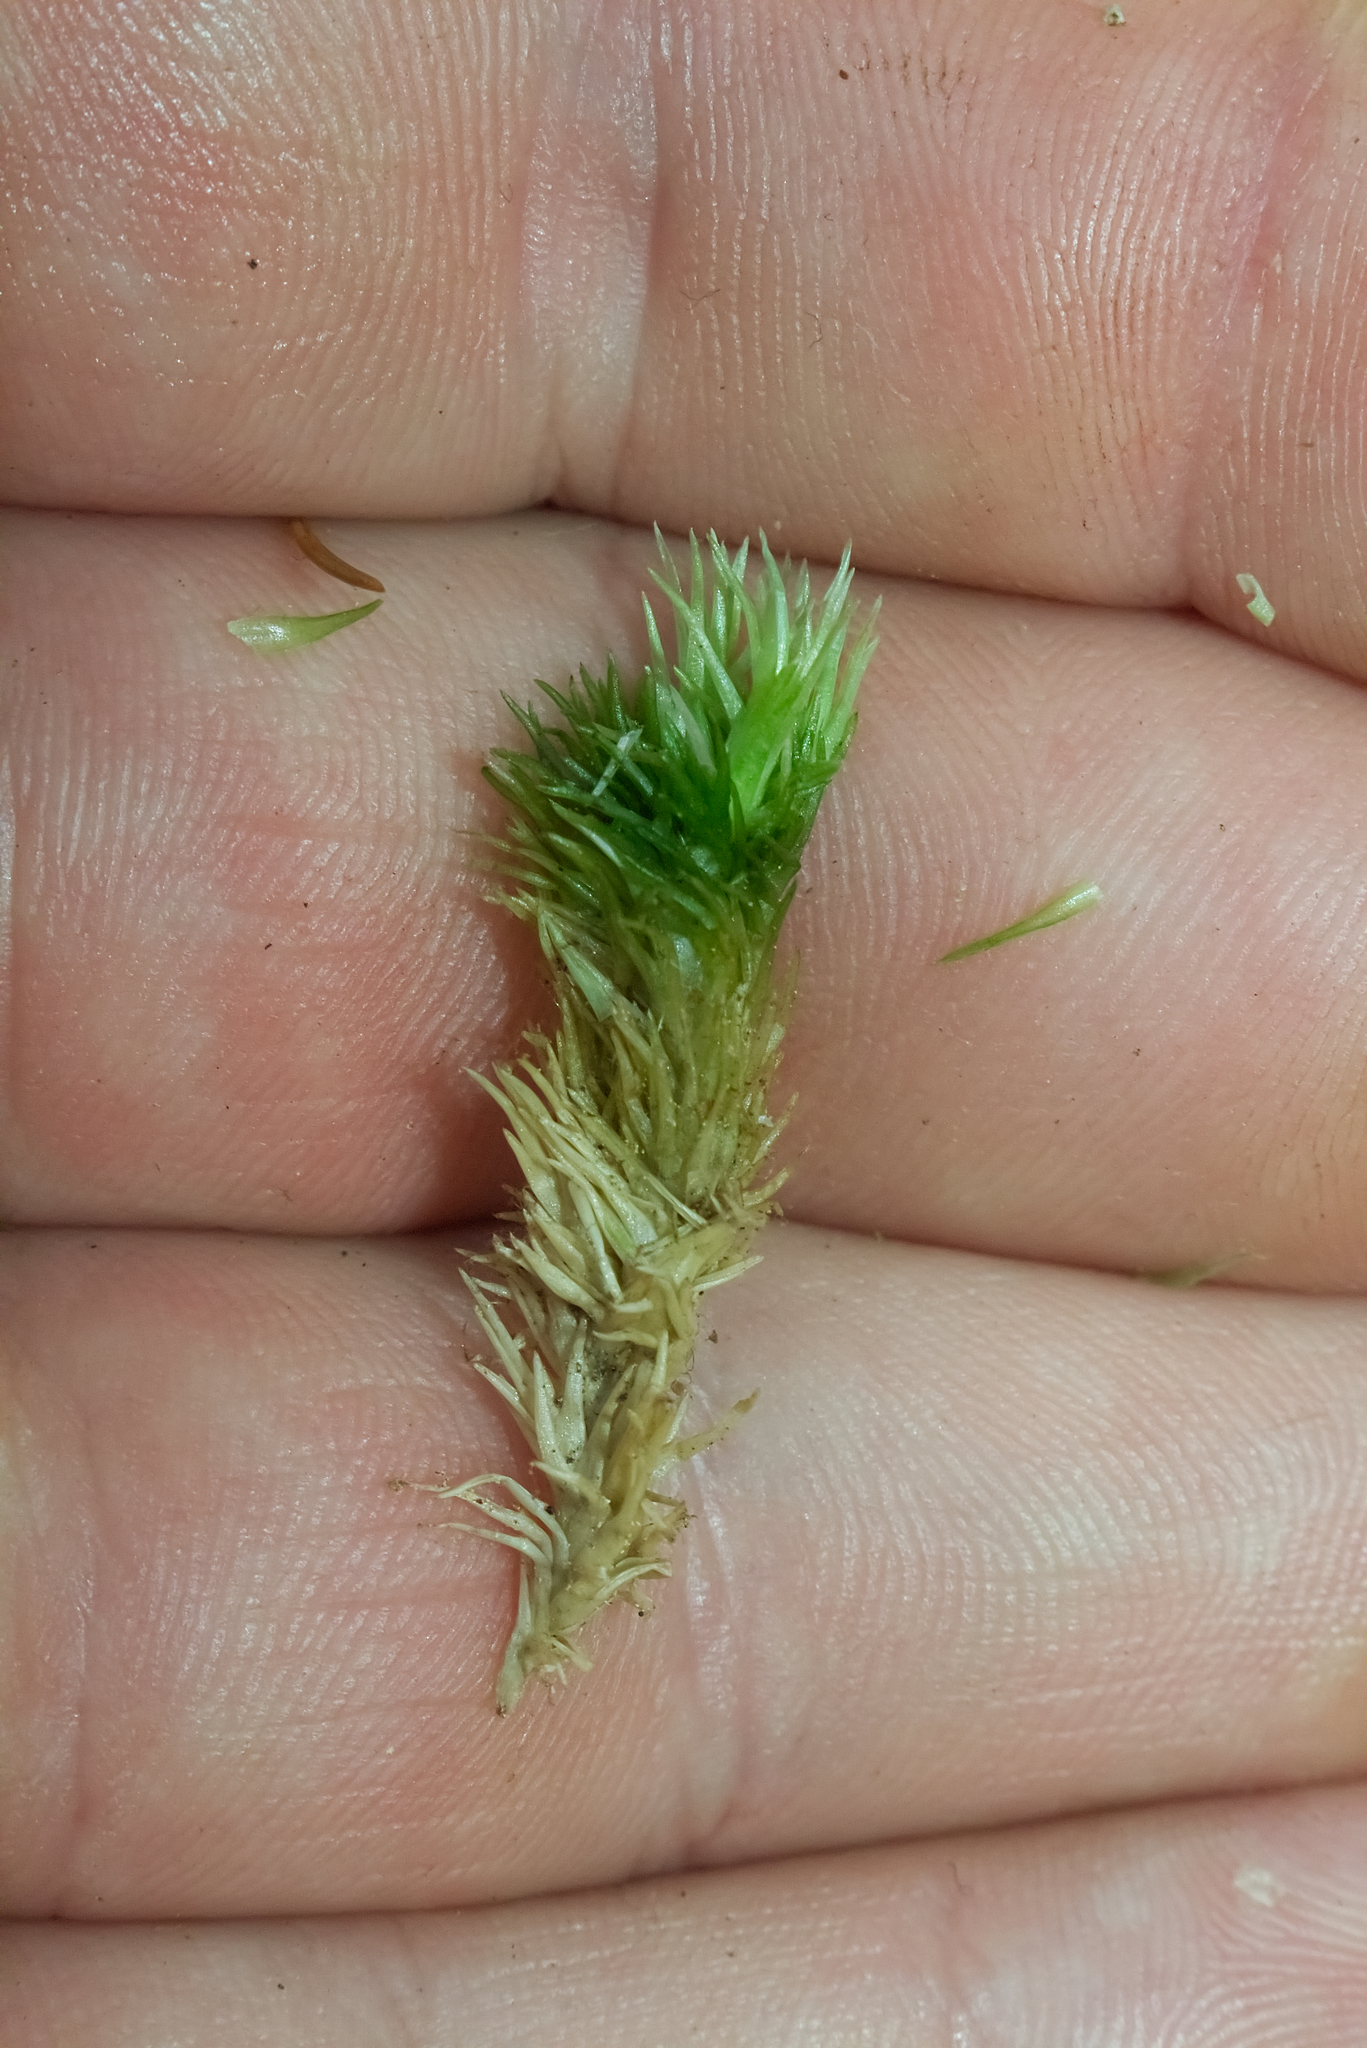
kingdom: Plantae
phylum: Bryophyta
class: Bryopsida
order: Dicranales
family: Leucobryaceae
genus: Leucobryum
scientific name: Leucobryum glaucum
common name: Large white-moss
